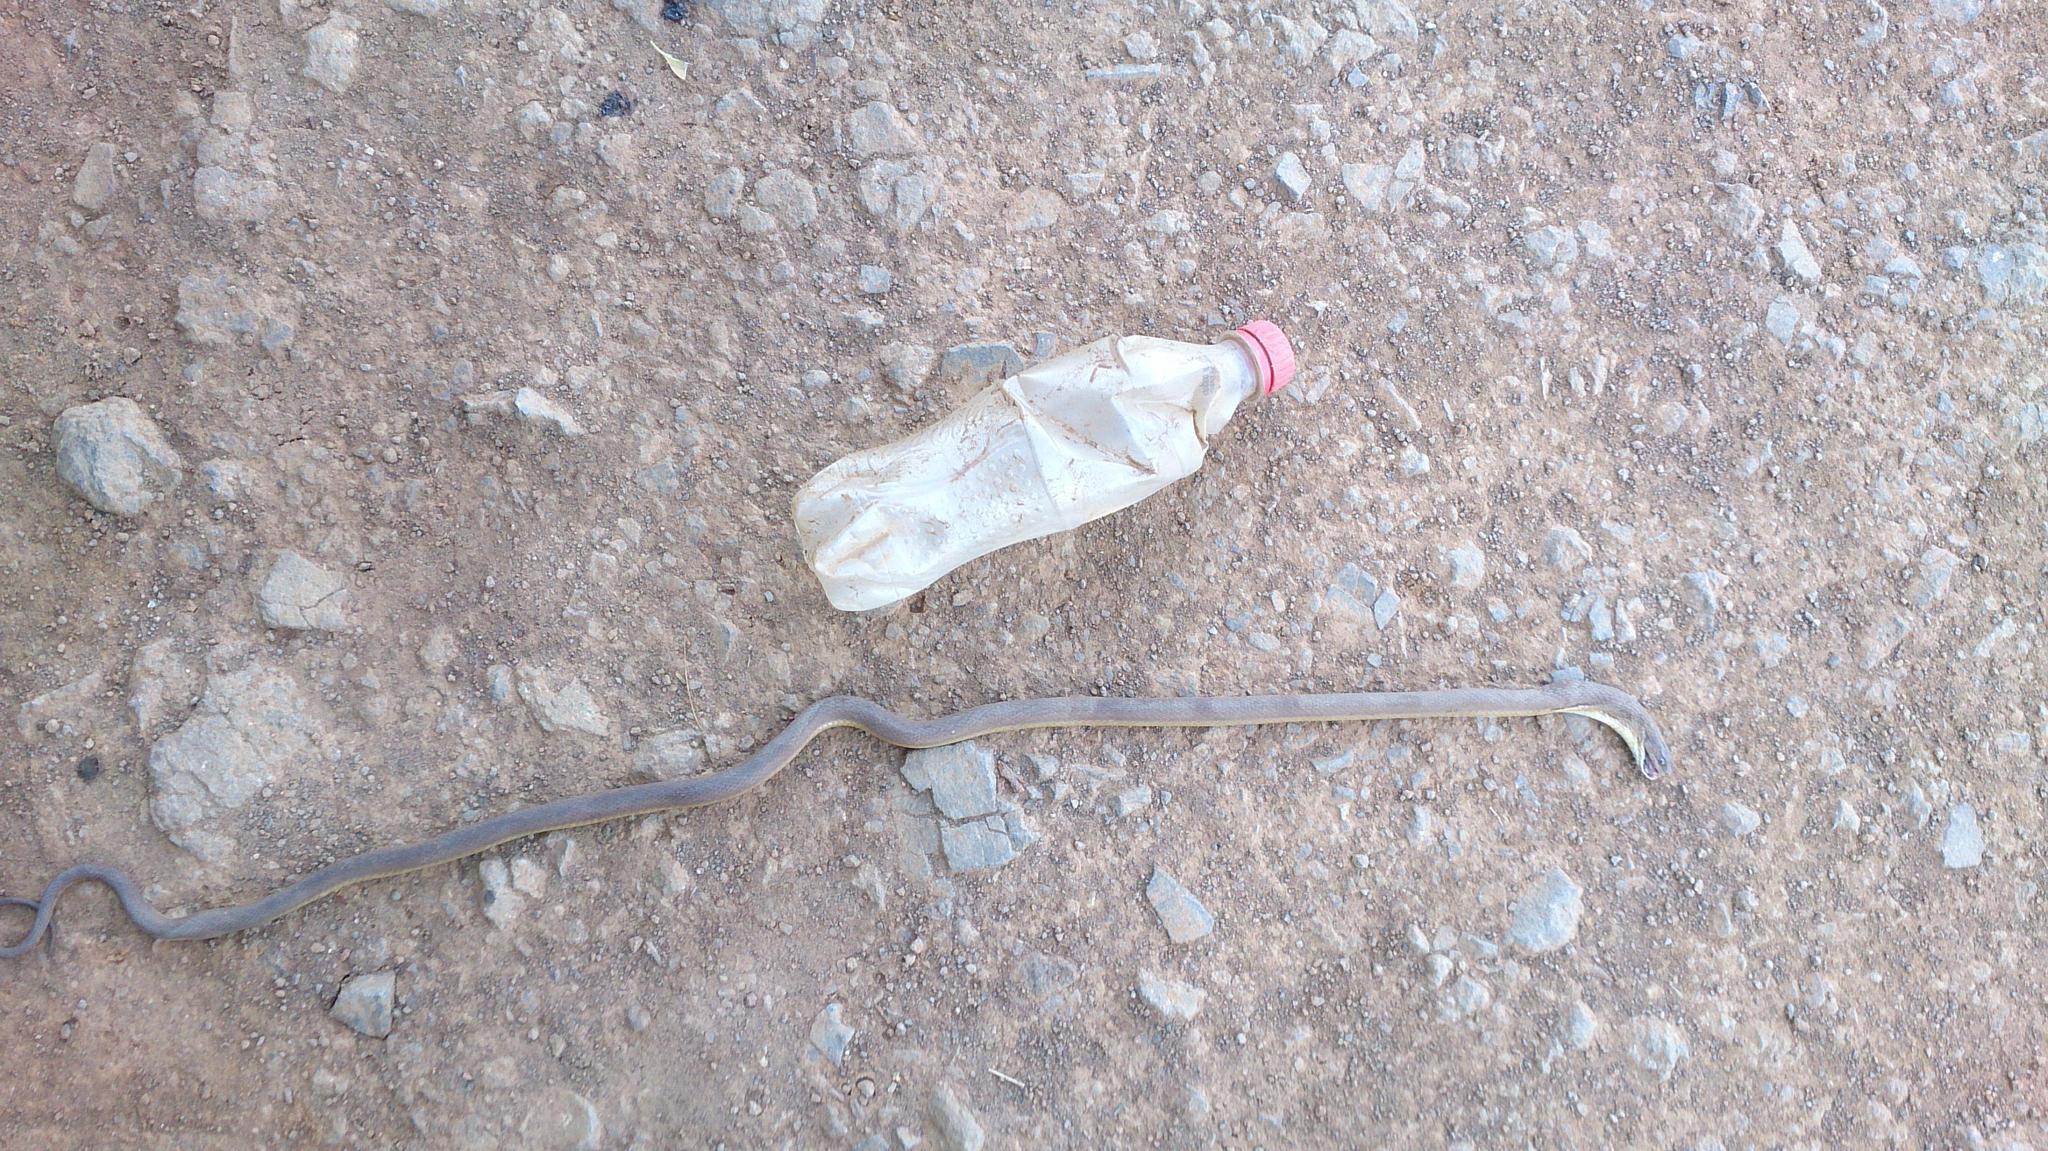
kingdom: Animalia
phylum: Chordata
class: Squamata
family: Colubridae
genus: Dasypeltis
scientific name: Dasypeltis inornata
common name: Southern brown egg eater
